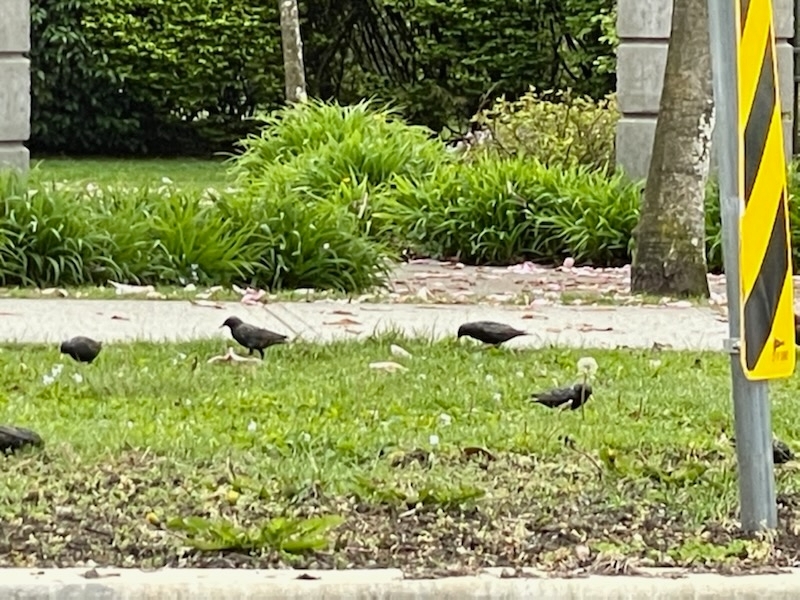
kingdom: Animalia
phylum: Chordata
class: Aves
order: Passeriformes
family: Sturnidae
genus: Sturnus
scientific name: Sturnus vulgaris
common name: Common starling
